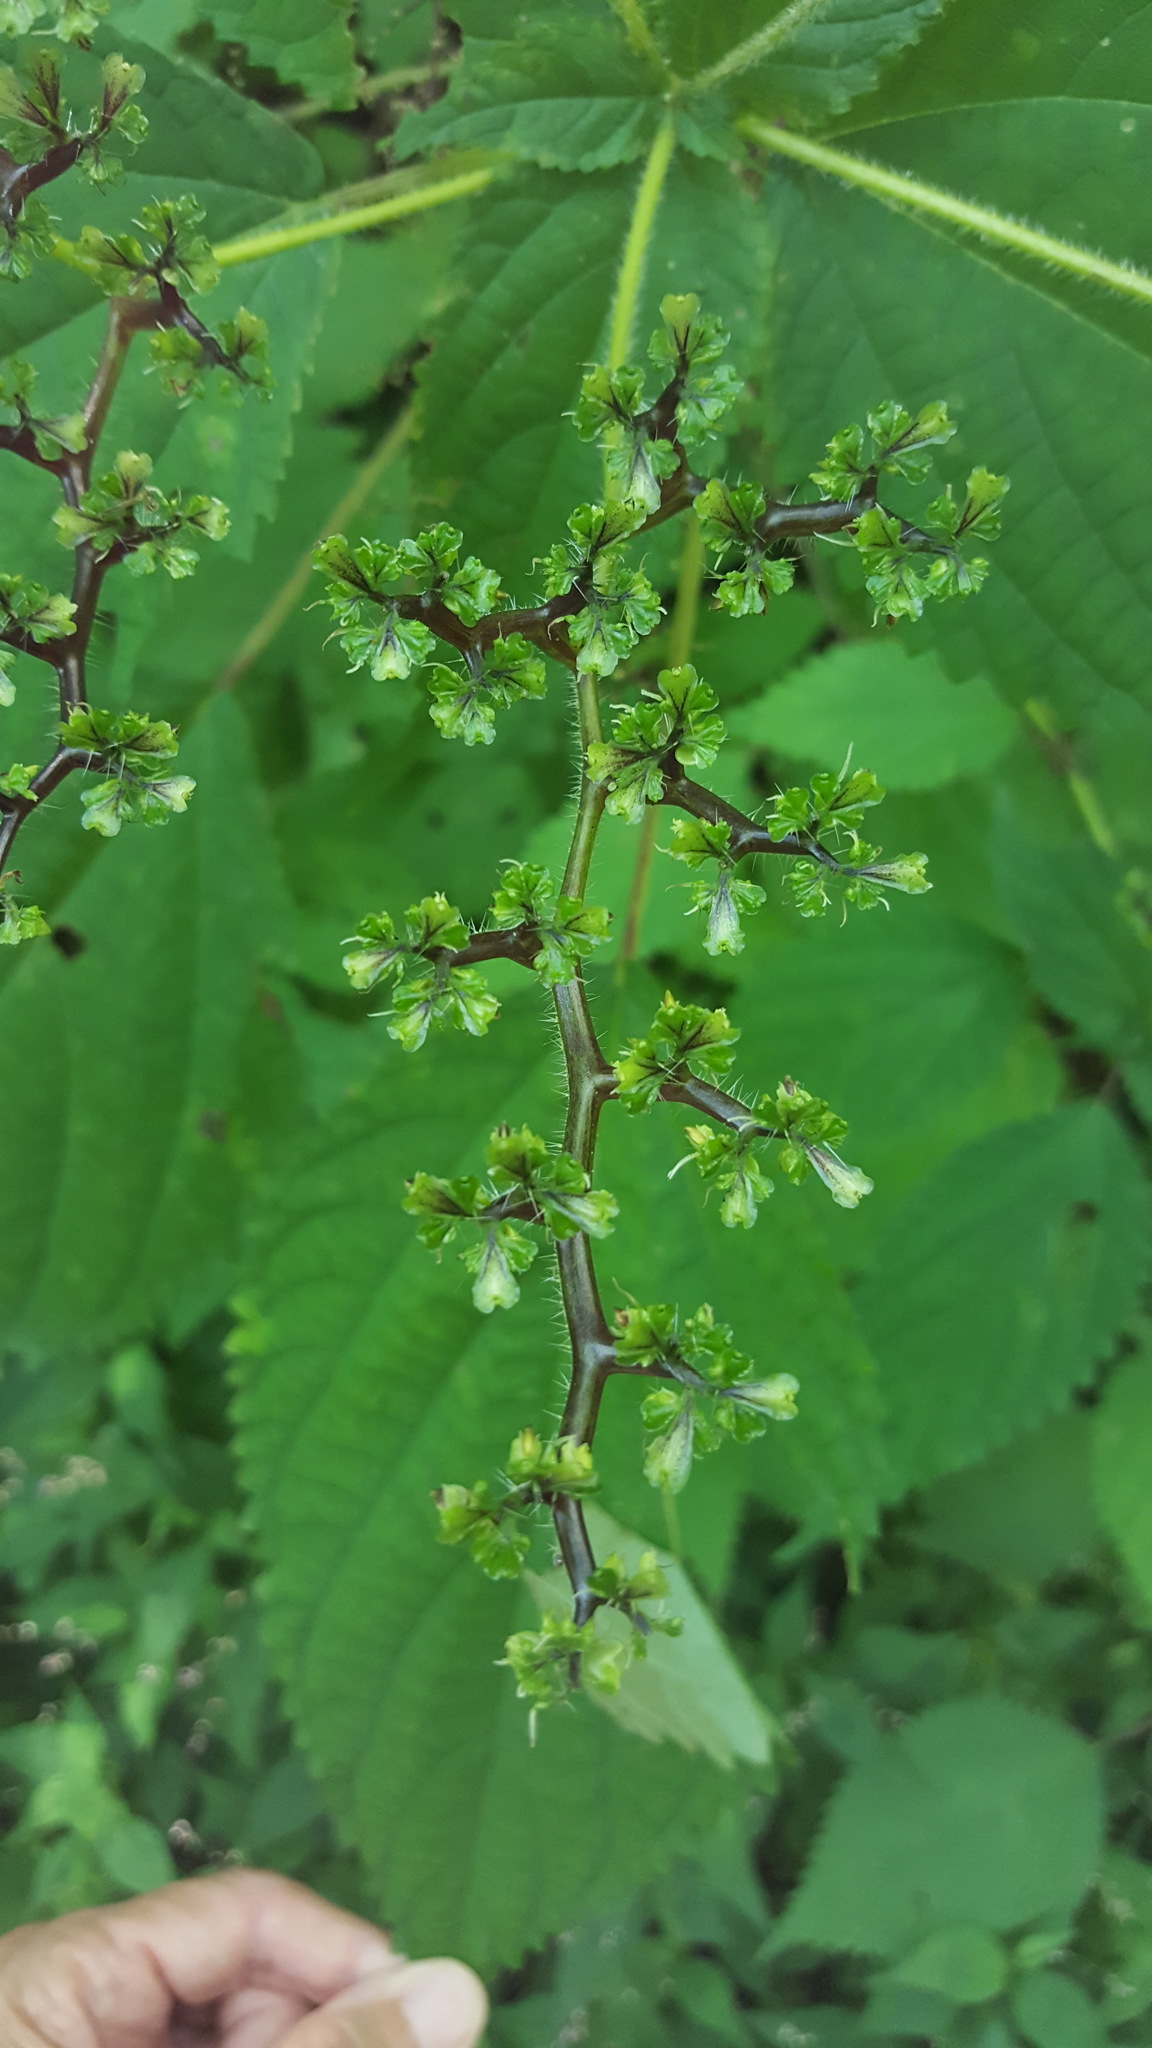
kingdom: Plantae
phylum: Tracheophyta
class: Magnoliopsida
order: Rosales
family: Urticaceae
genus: Laportea
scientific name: Laportea canadensis
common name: Canada nettle
